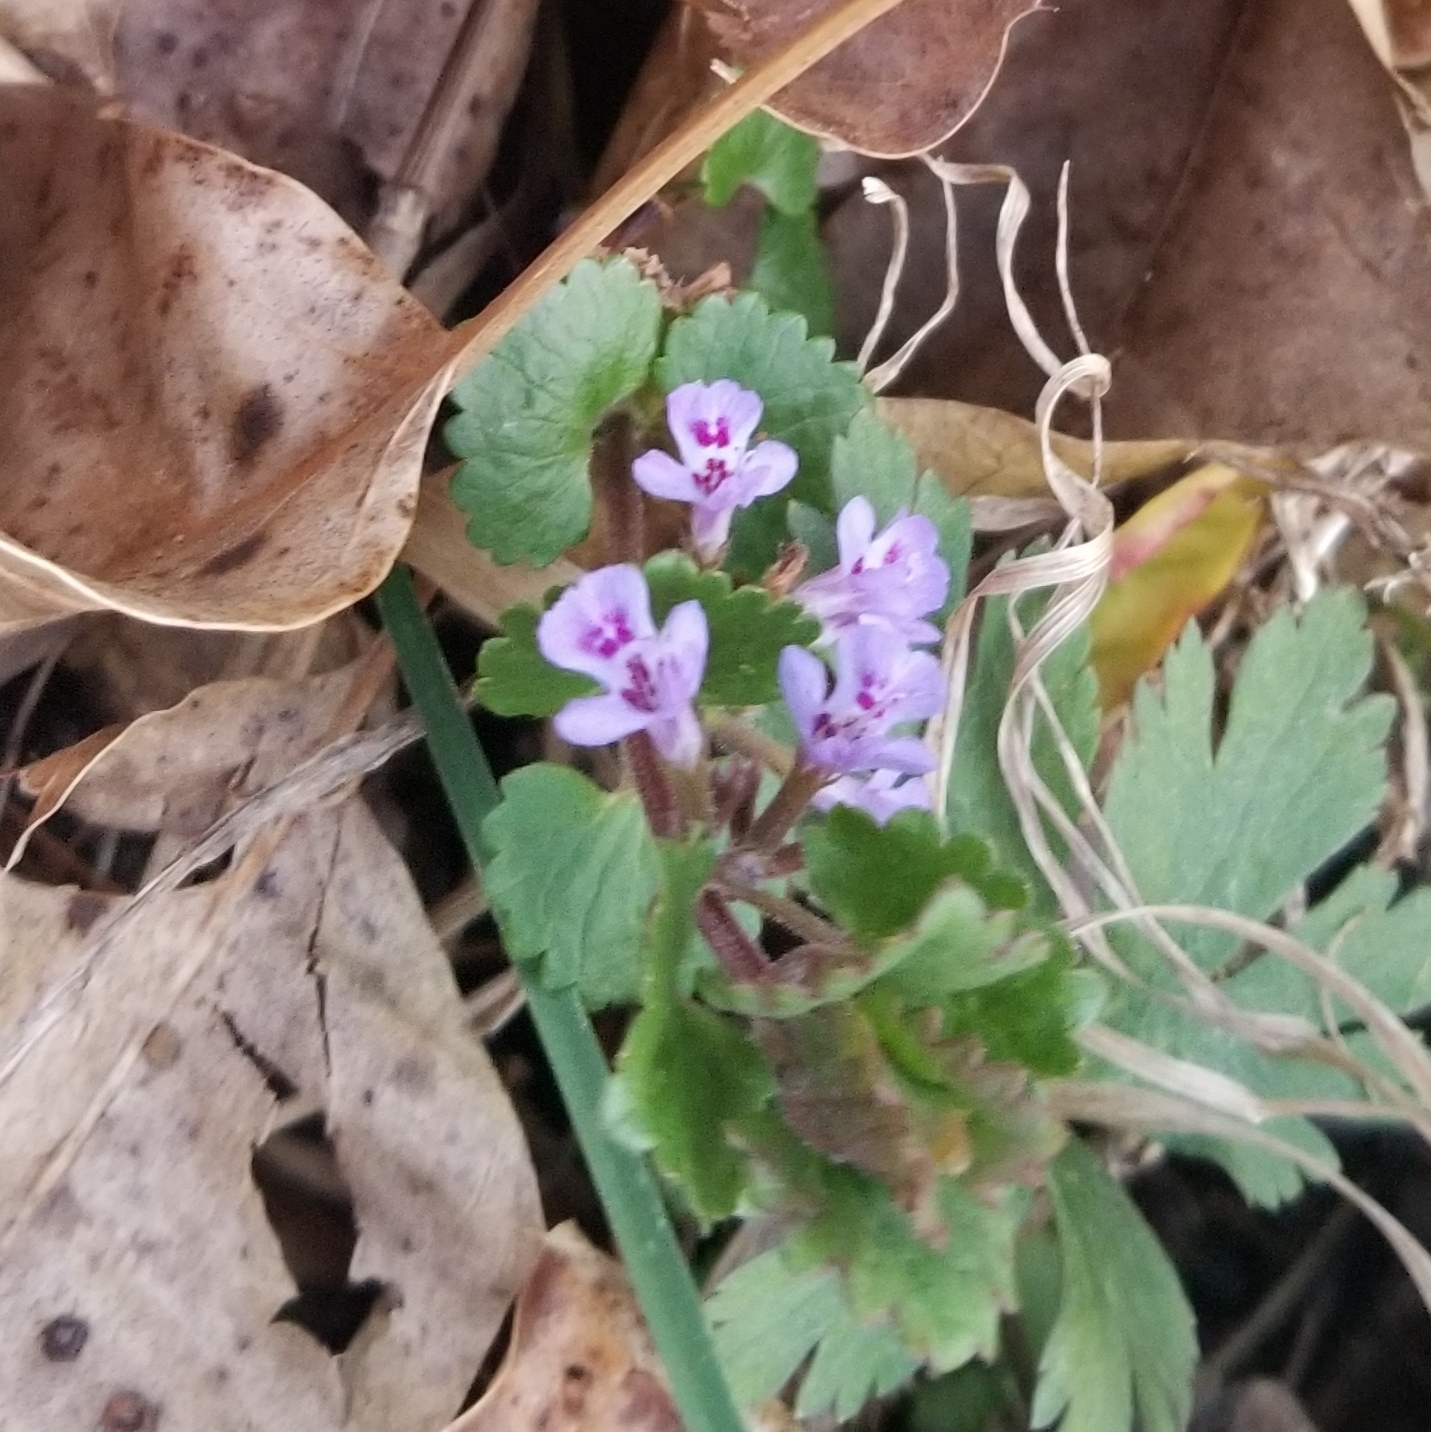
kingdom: Plantae
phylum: Tracheophyta
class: Magnoliopsida
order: Lamiales
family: Lamiaceae
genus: Glechoma
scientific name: Glechoma hederacea
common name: Ground ivy
